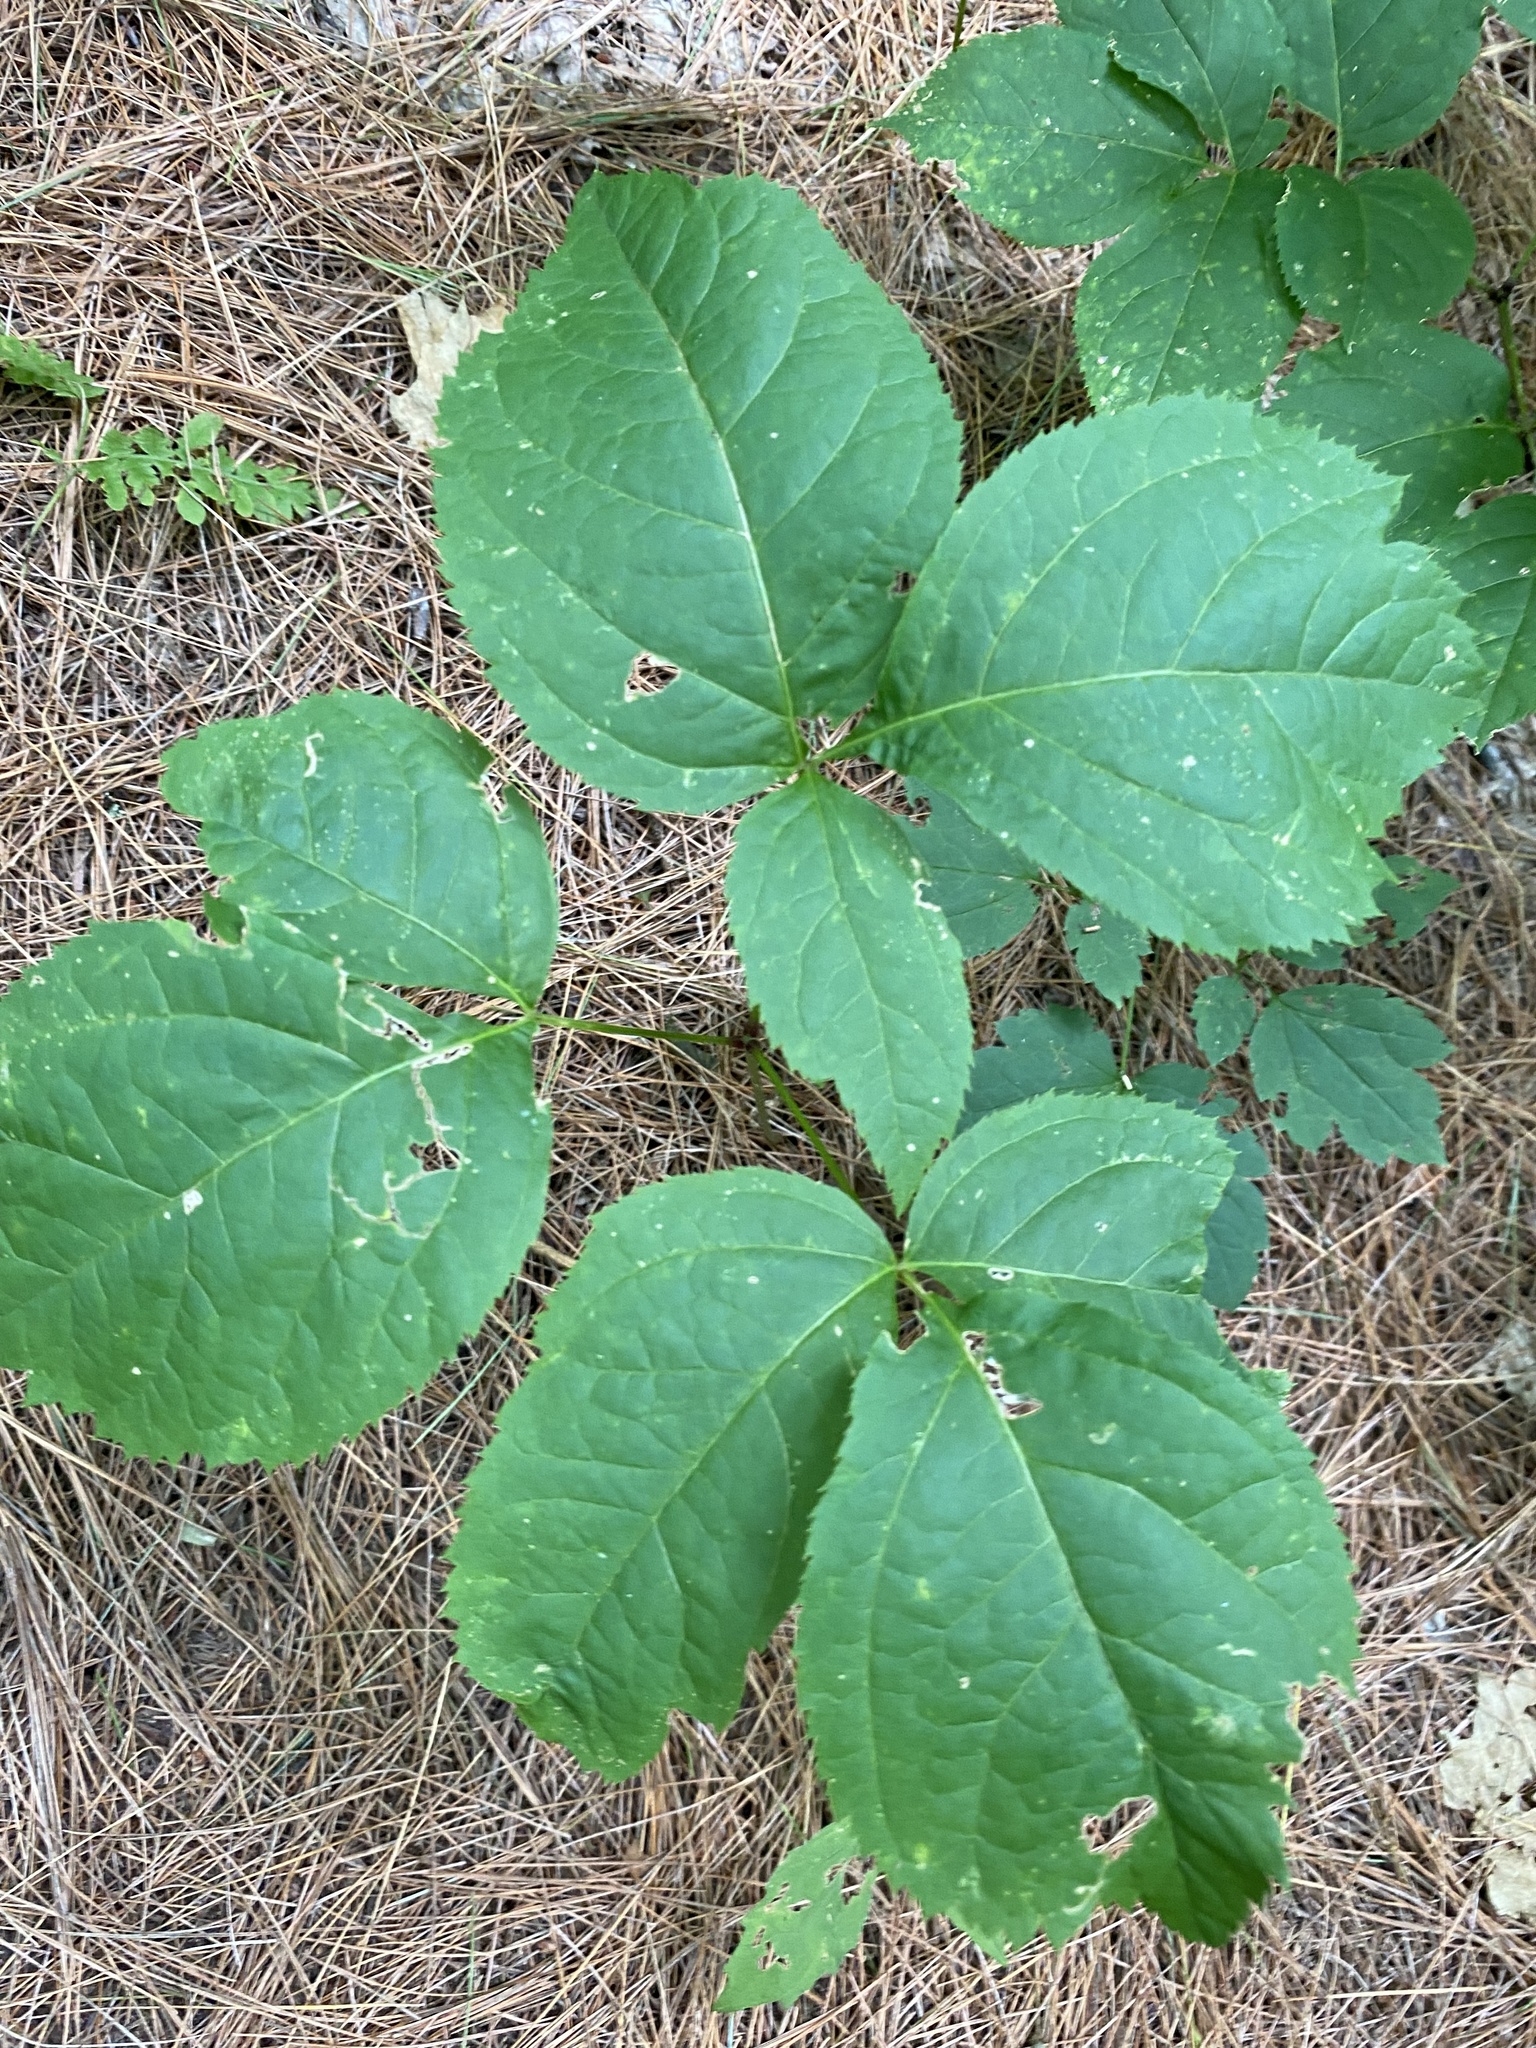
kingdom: Plantae
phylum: Tracheophyta
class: Magnoliopsida
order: Apiales
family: Araliaceae
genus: Aralia
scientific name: Aralia nudicaulis
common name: Wild sarsaparilla
